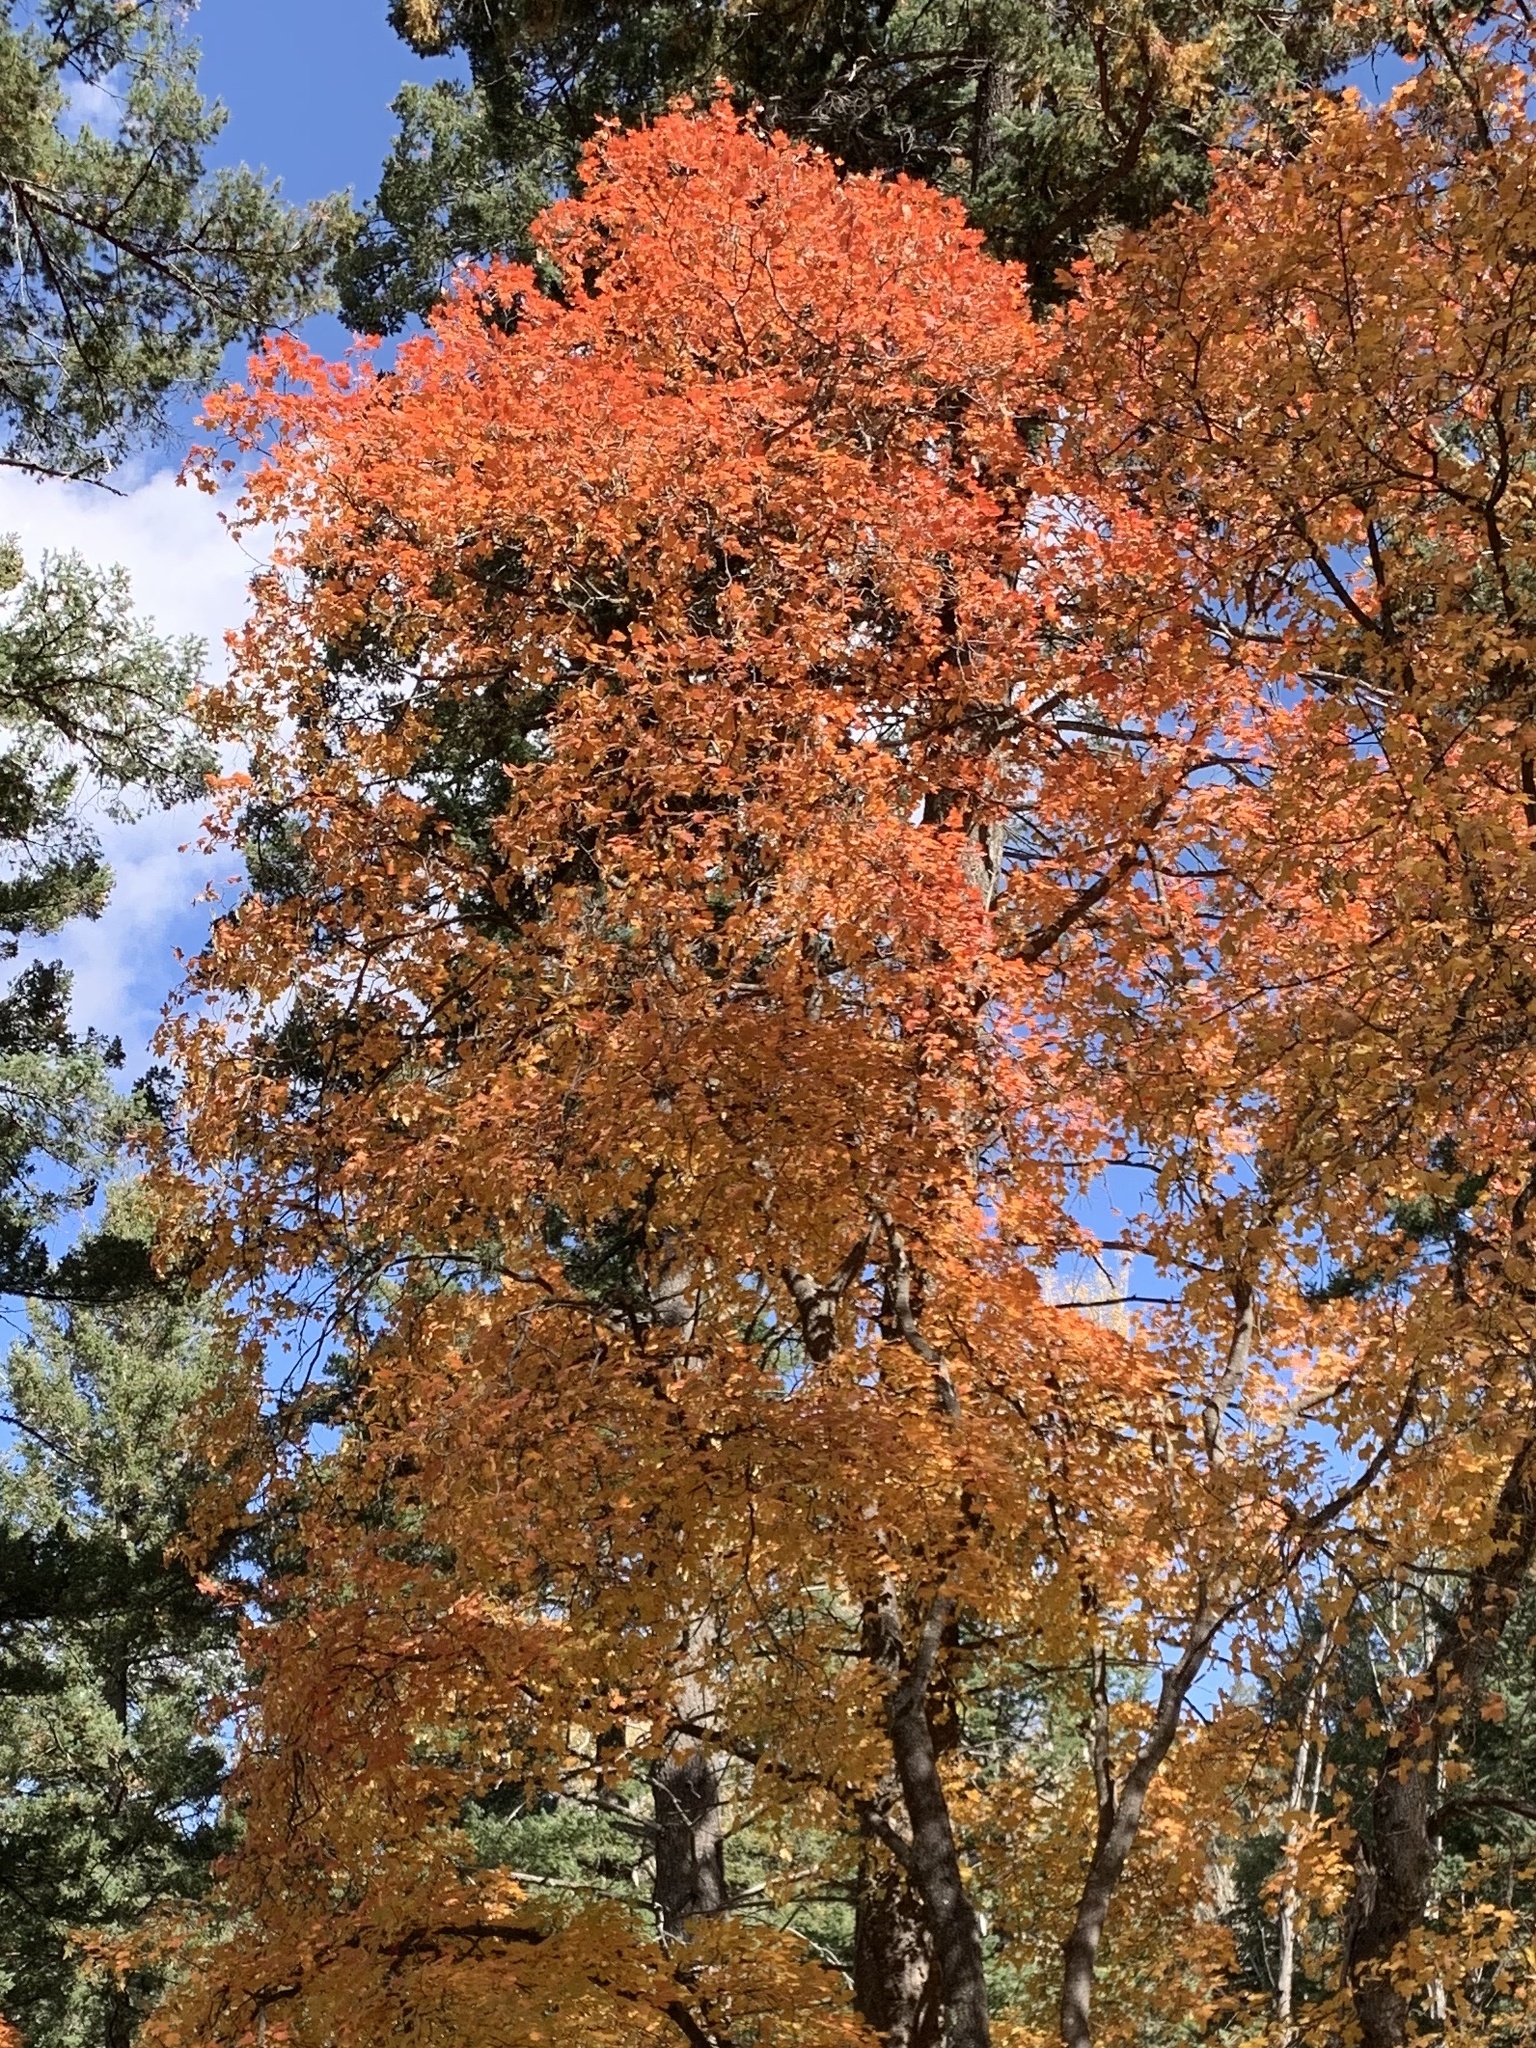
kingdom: Plantae
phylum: Tracheophyta
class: Magnoliopsida
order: Sapindales
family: Sapindaceae
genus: Acer
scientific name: Acer grandidentatum
